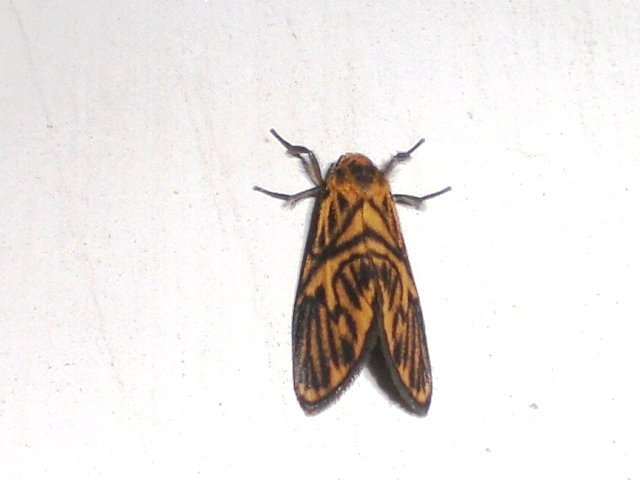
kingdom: Animalia
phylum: Arthropoda
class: Insecta
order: Lepidoptera
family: Erebidae
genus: Disasuridia
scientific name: Disasuridia fangae
